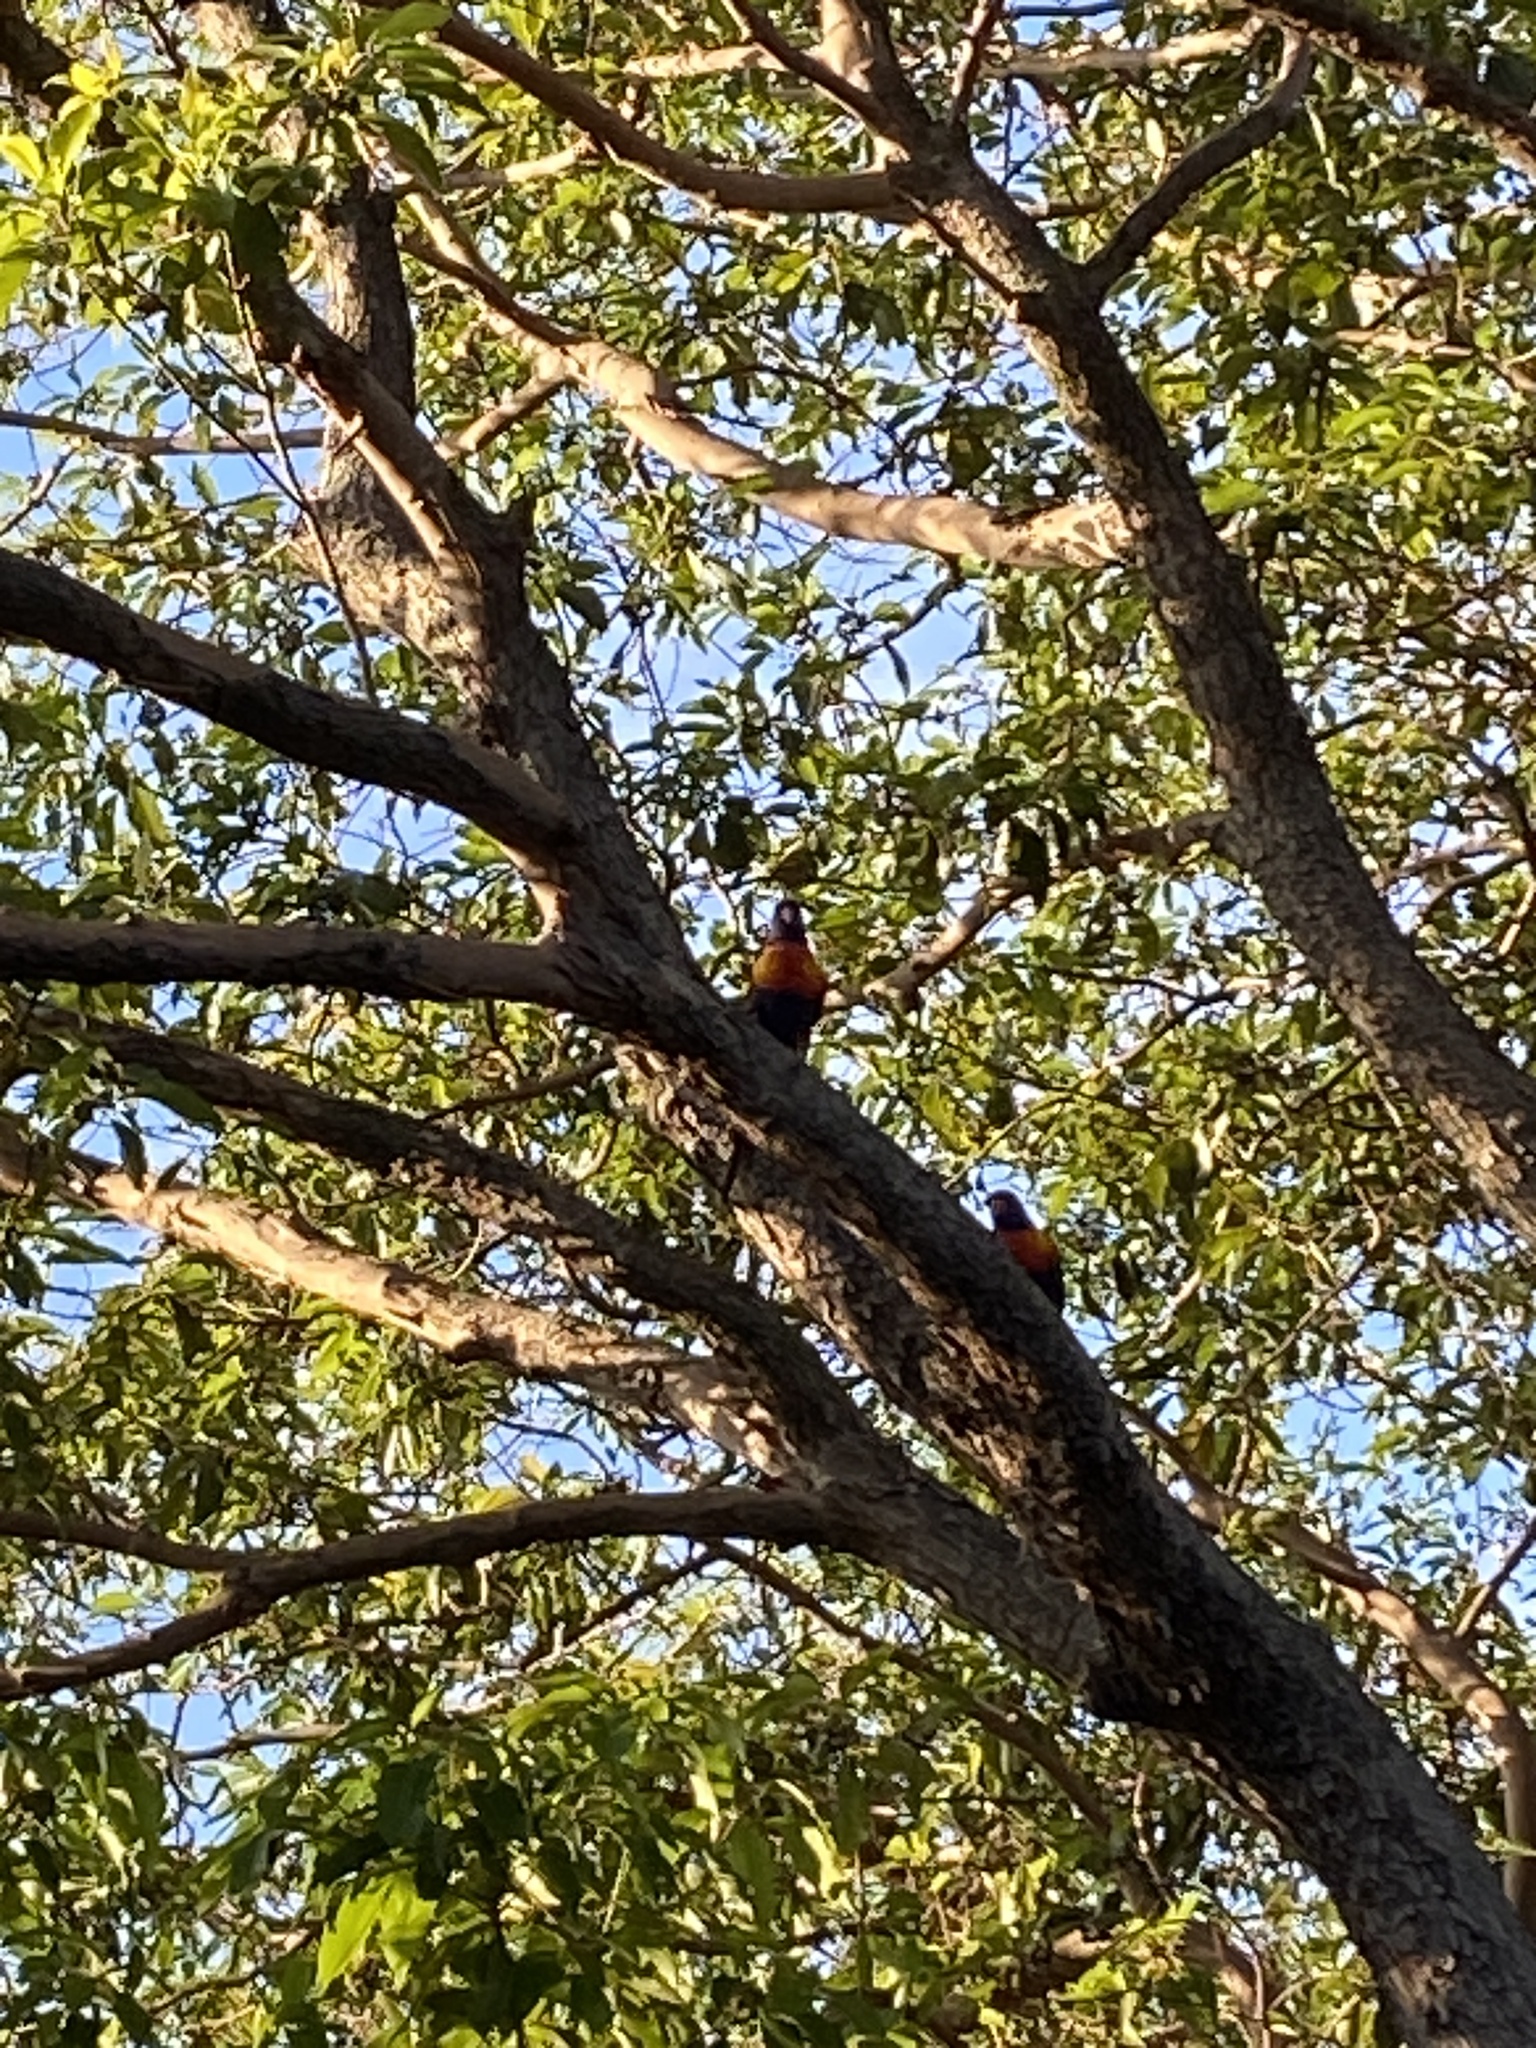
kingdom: Animalia
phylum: Chordata
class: Aves
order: Psittaciformes
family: Psittacidae
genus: Trichoglossus
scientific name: Trichoglossus haematodus
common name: Coconut lorikeet
